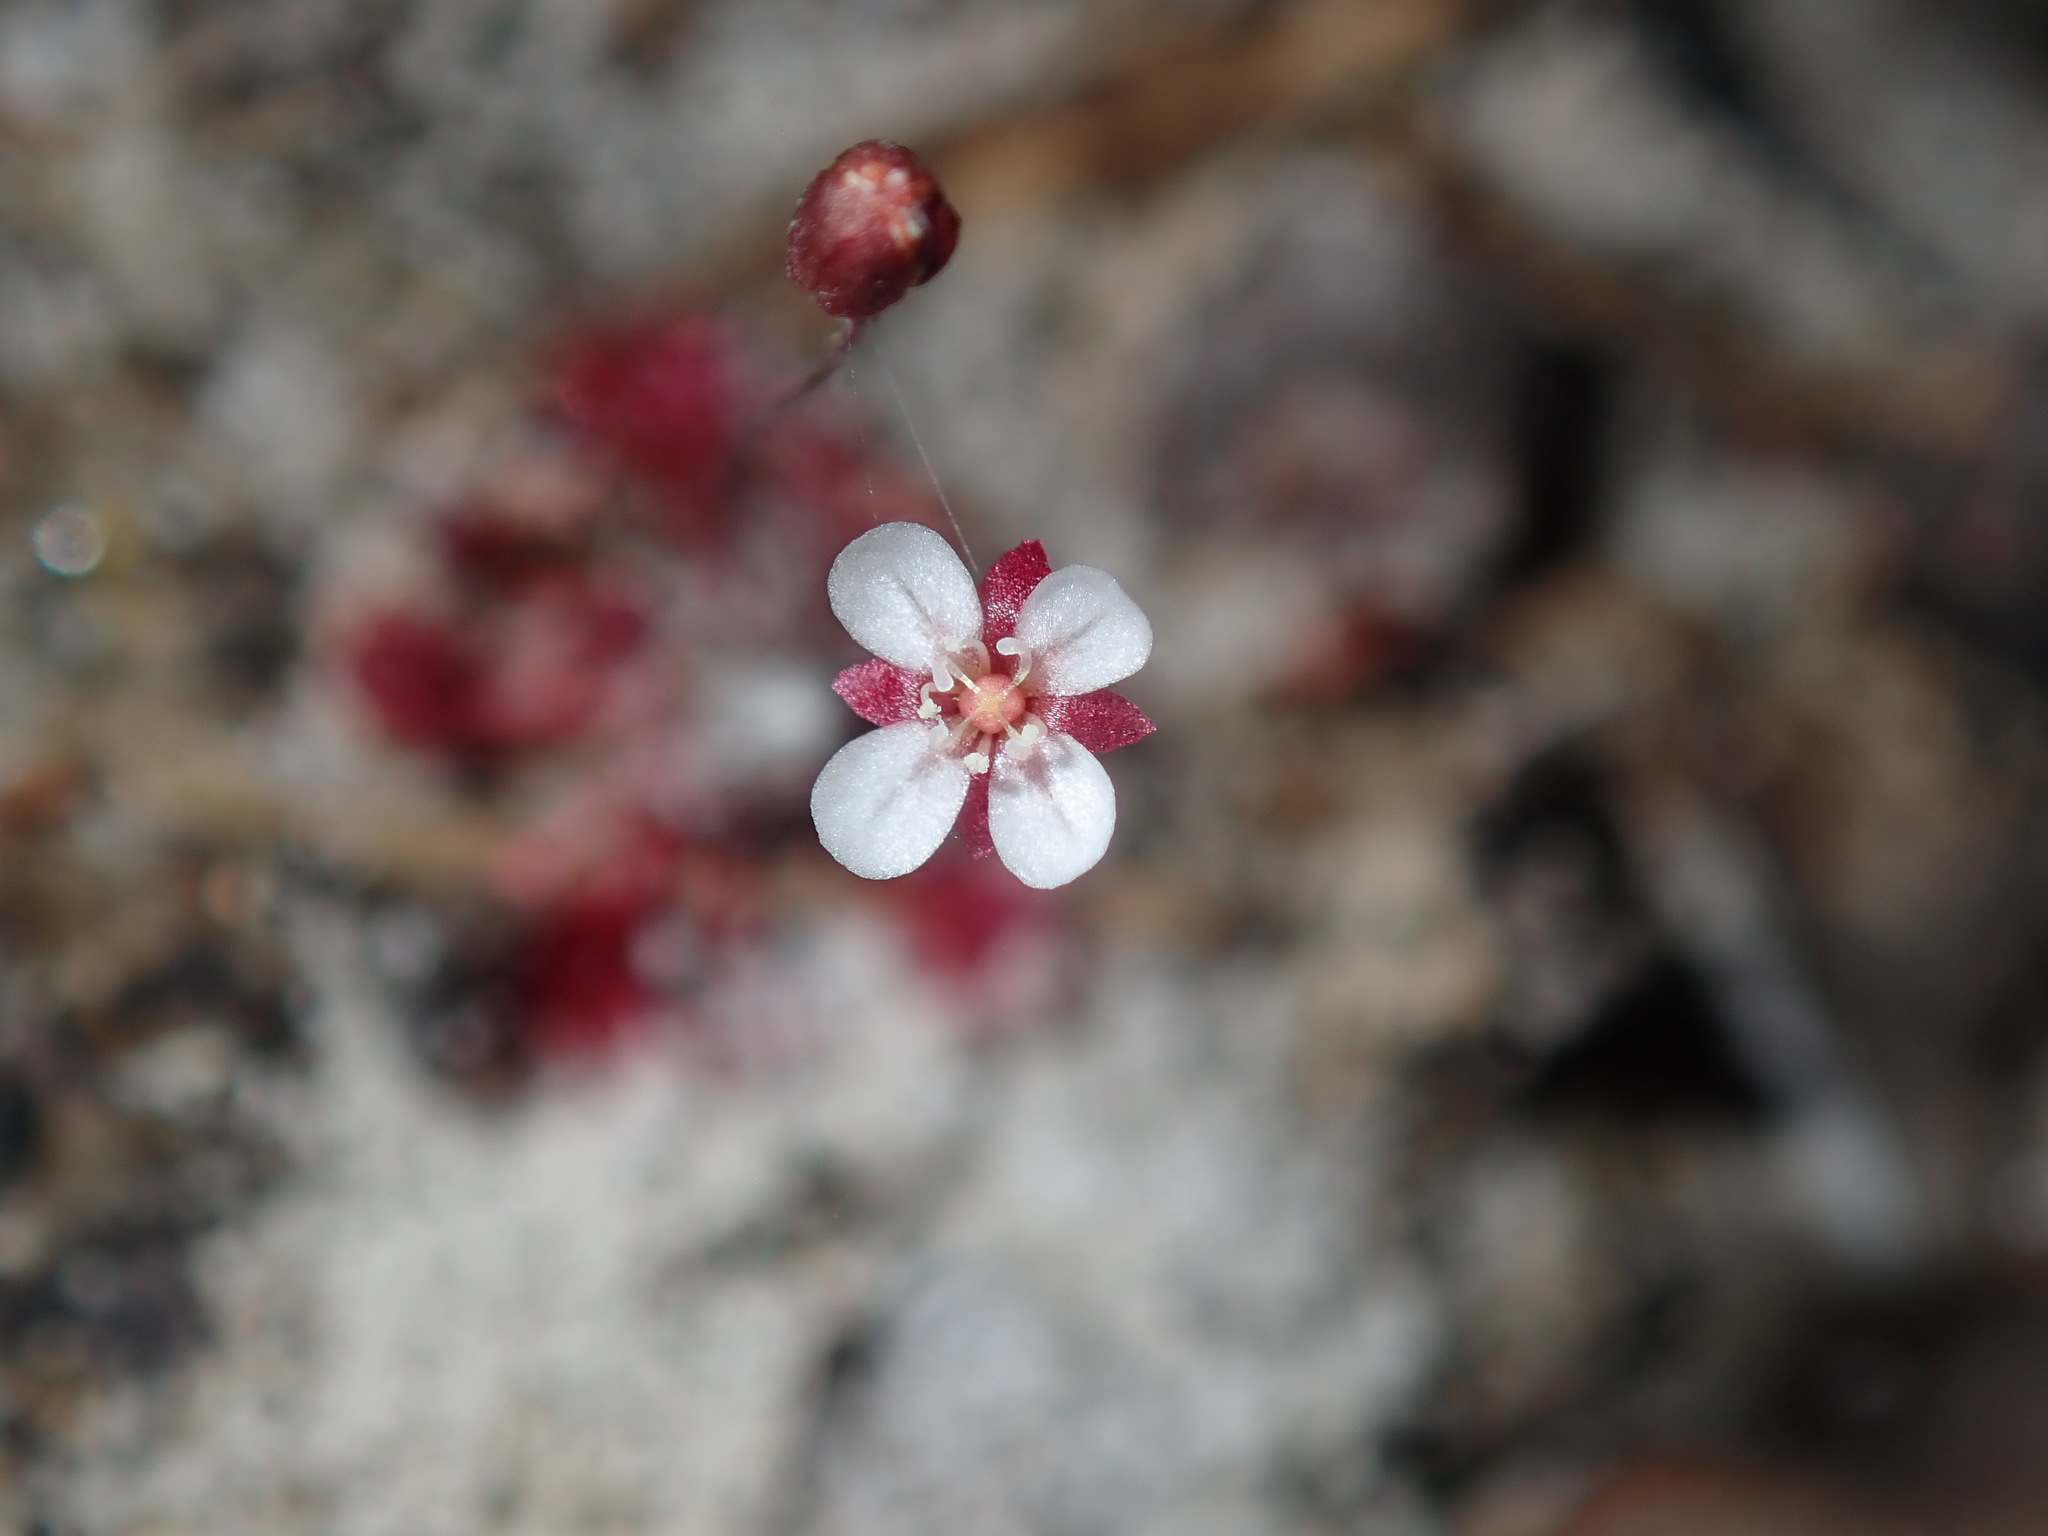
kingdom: Plantae
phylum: Tracheophyta
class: Magnoliopsida
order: Caryophyllales
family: Droseraceae
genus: Drosera
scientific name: Drosera pygmaea
